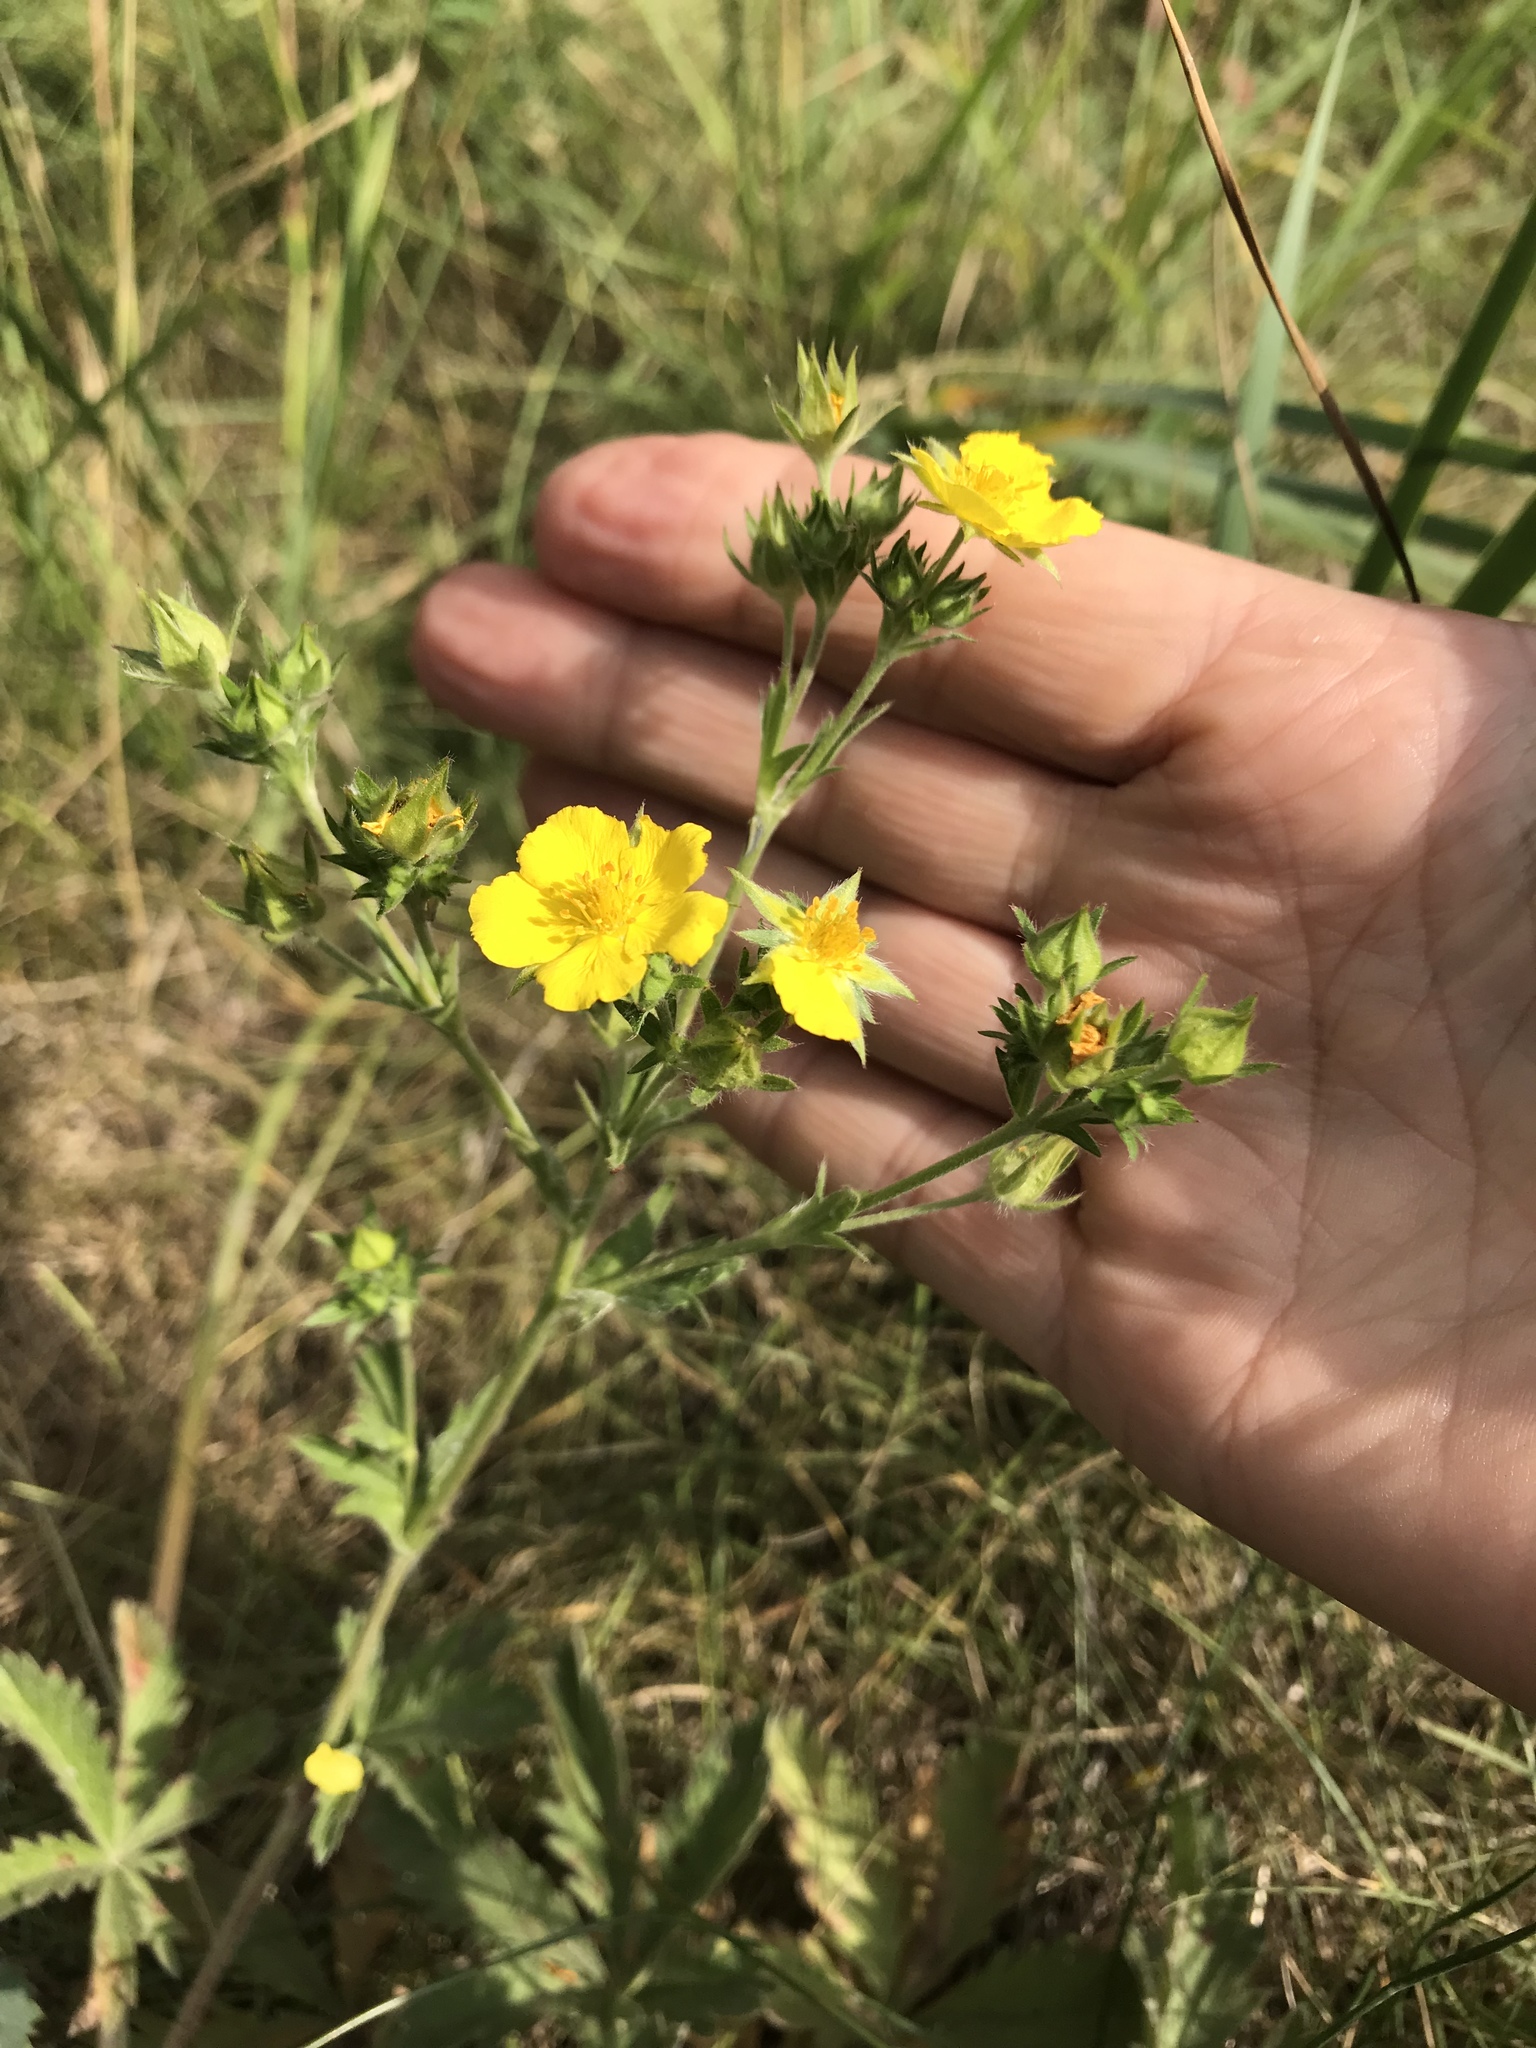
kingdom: Plantae
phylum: Tracheophyta
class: Magnoliopsida
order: Rosales
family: Rosaceae
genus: Potentilla
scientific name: Potentilla gracilis
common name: Graceful cinquefoil
